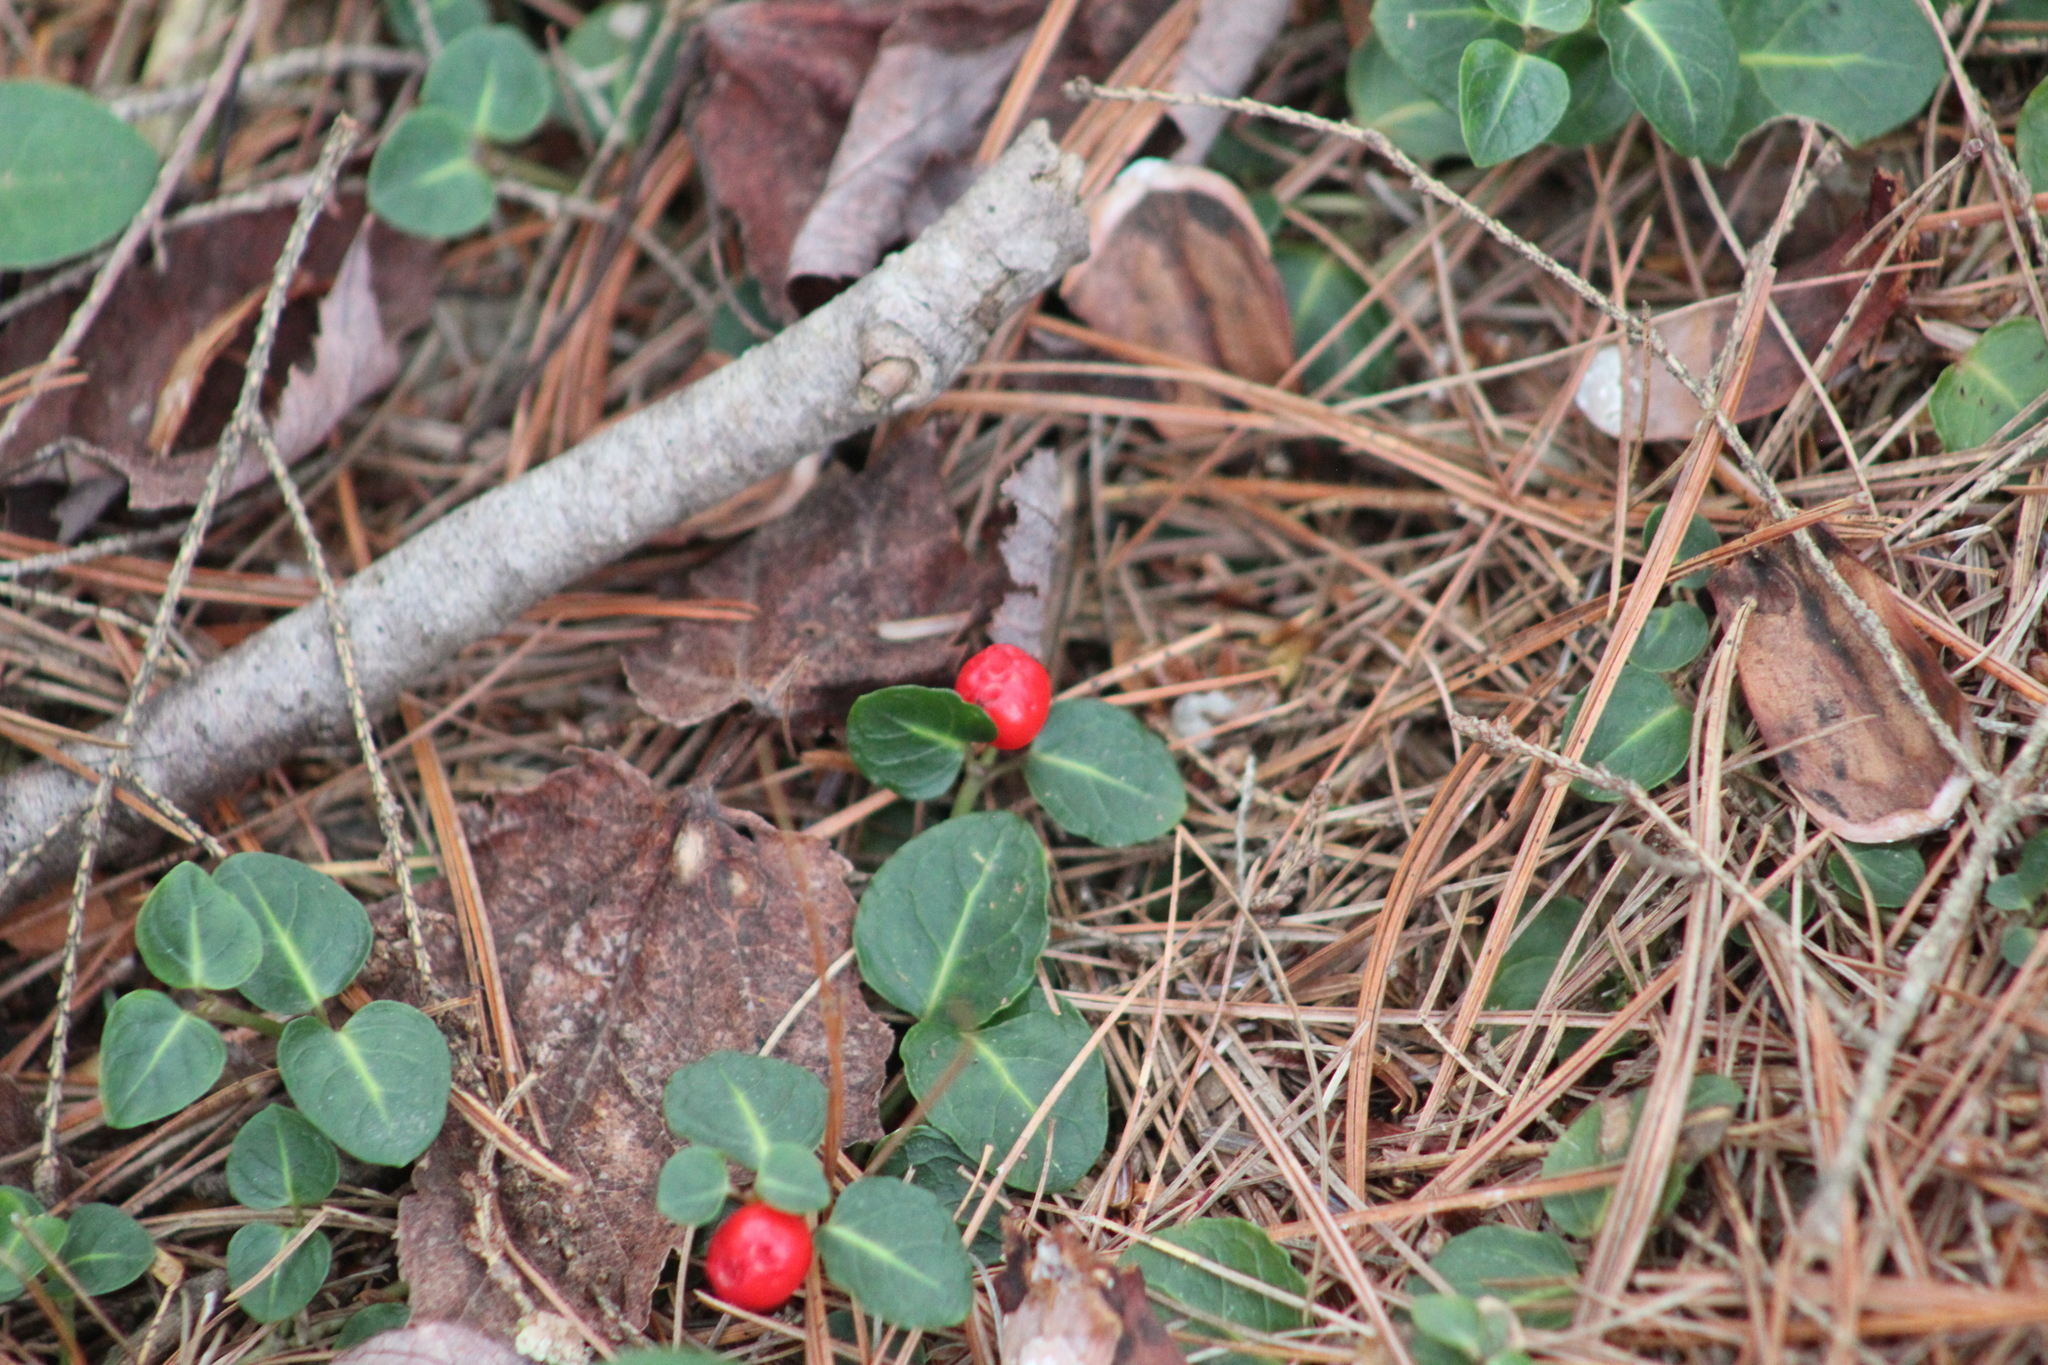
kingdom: Plantae
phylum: Tracheophyta
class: Magnoliopsida
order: Gentianales
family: Rubiaceae
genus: Mitchella
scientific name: Mitchella repens
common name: Partridge-berry
